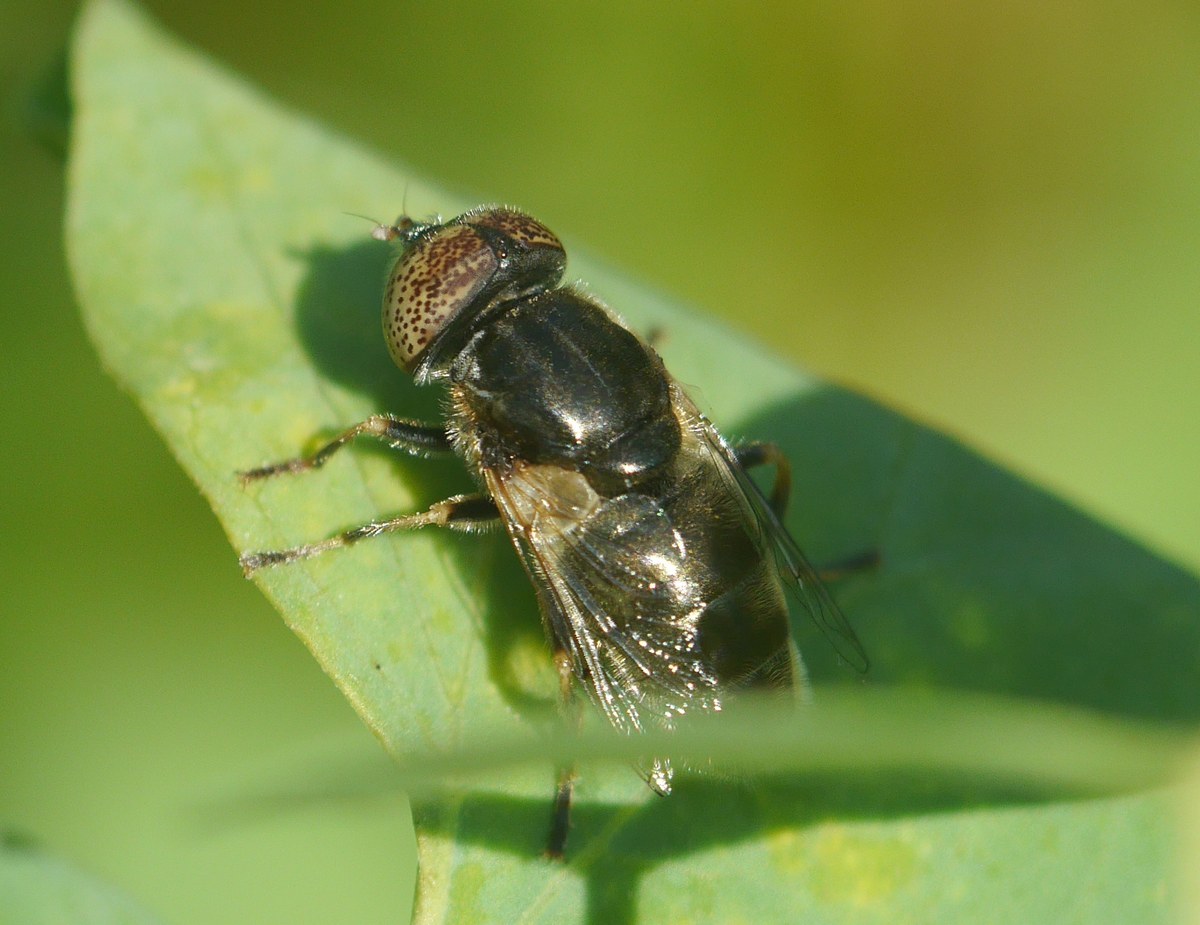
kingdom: Animalia
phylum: Arthropoda
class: Insecta
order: Diptera
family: Syrphidae
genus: Eristalinus
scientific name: Eristalinus aeneus
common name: Syrphid fly
